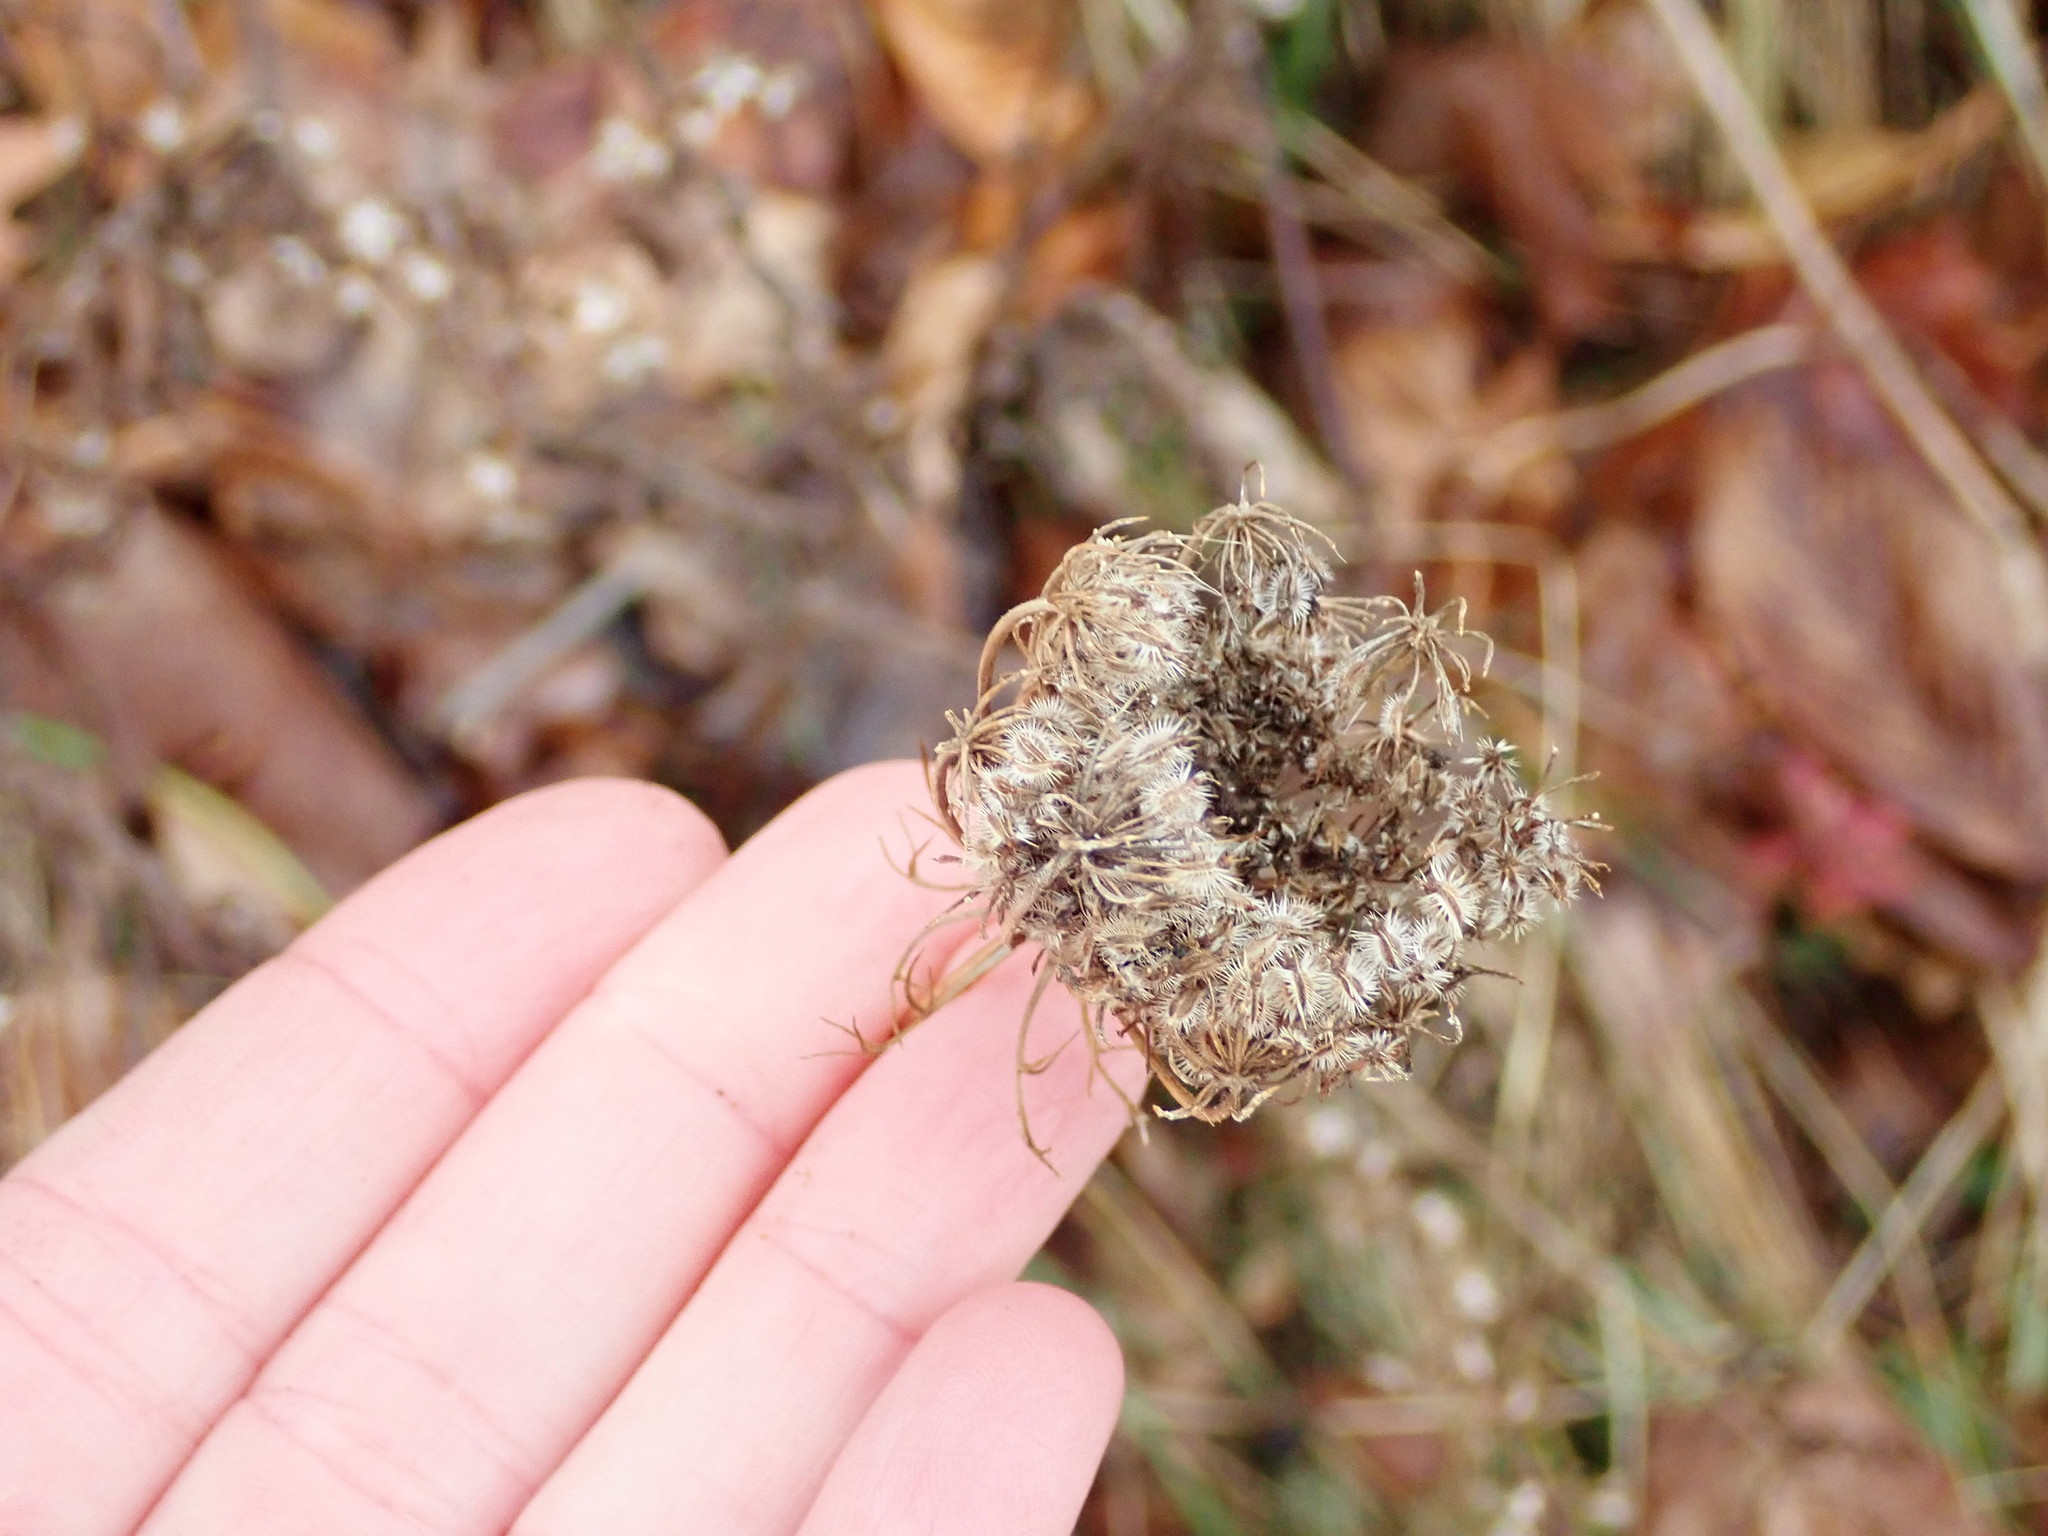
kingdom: Plantae
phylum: Tracheophyta
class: Magnoliopsida
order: Apiales
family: Apiaceae
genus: Daucus
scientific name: Daucus carota
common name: Wild carrot
